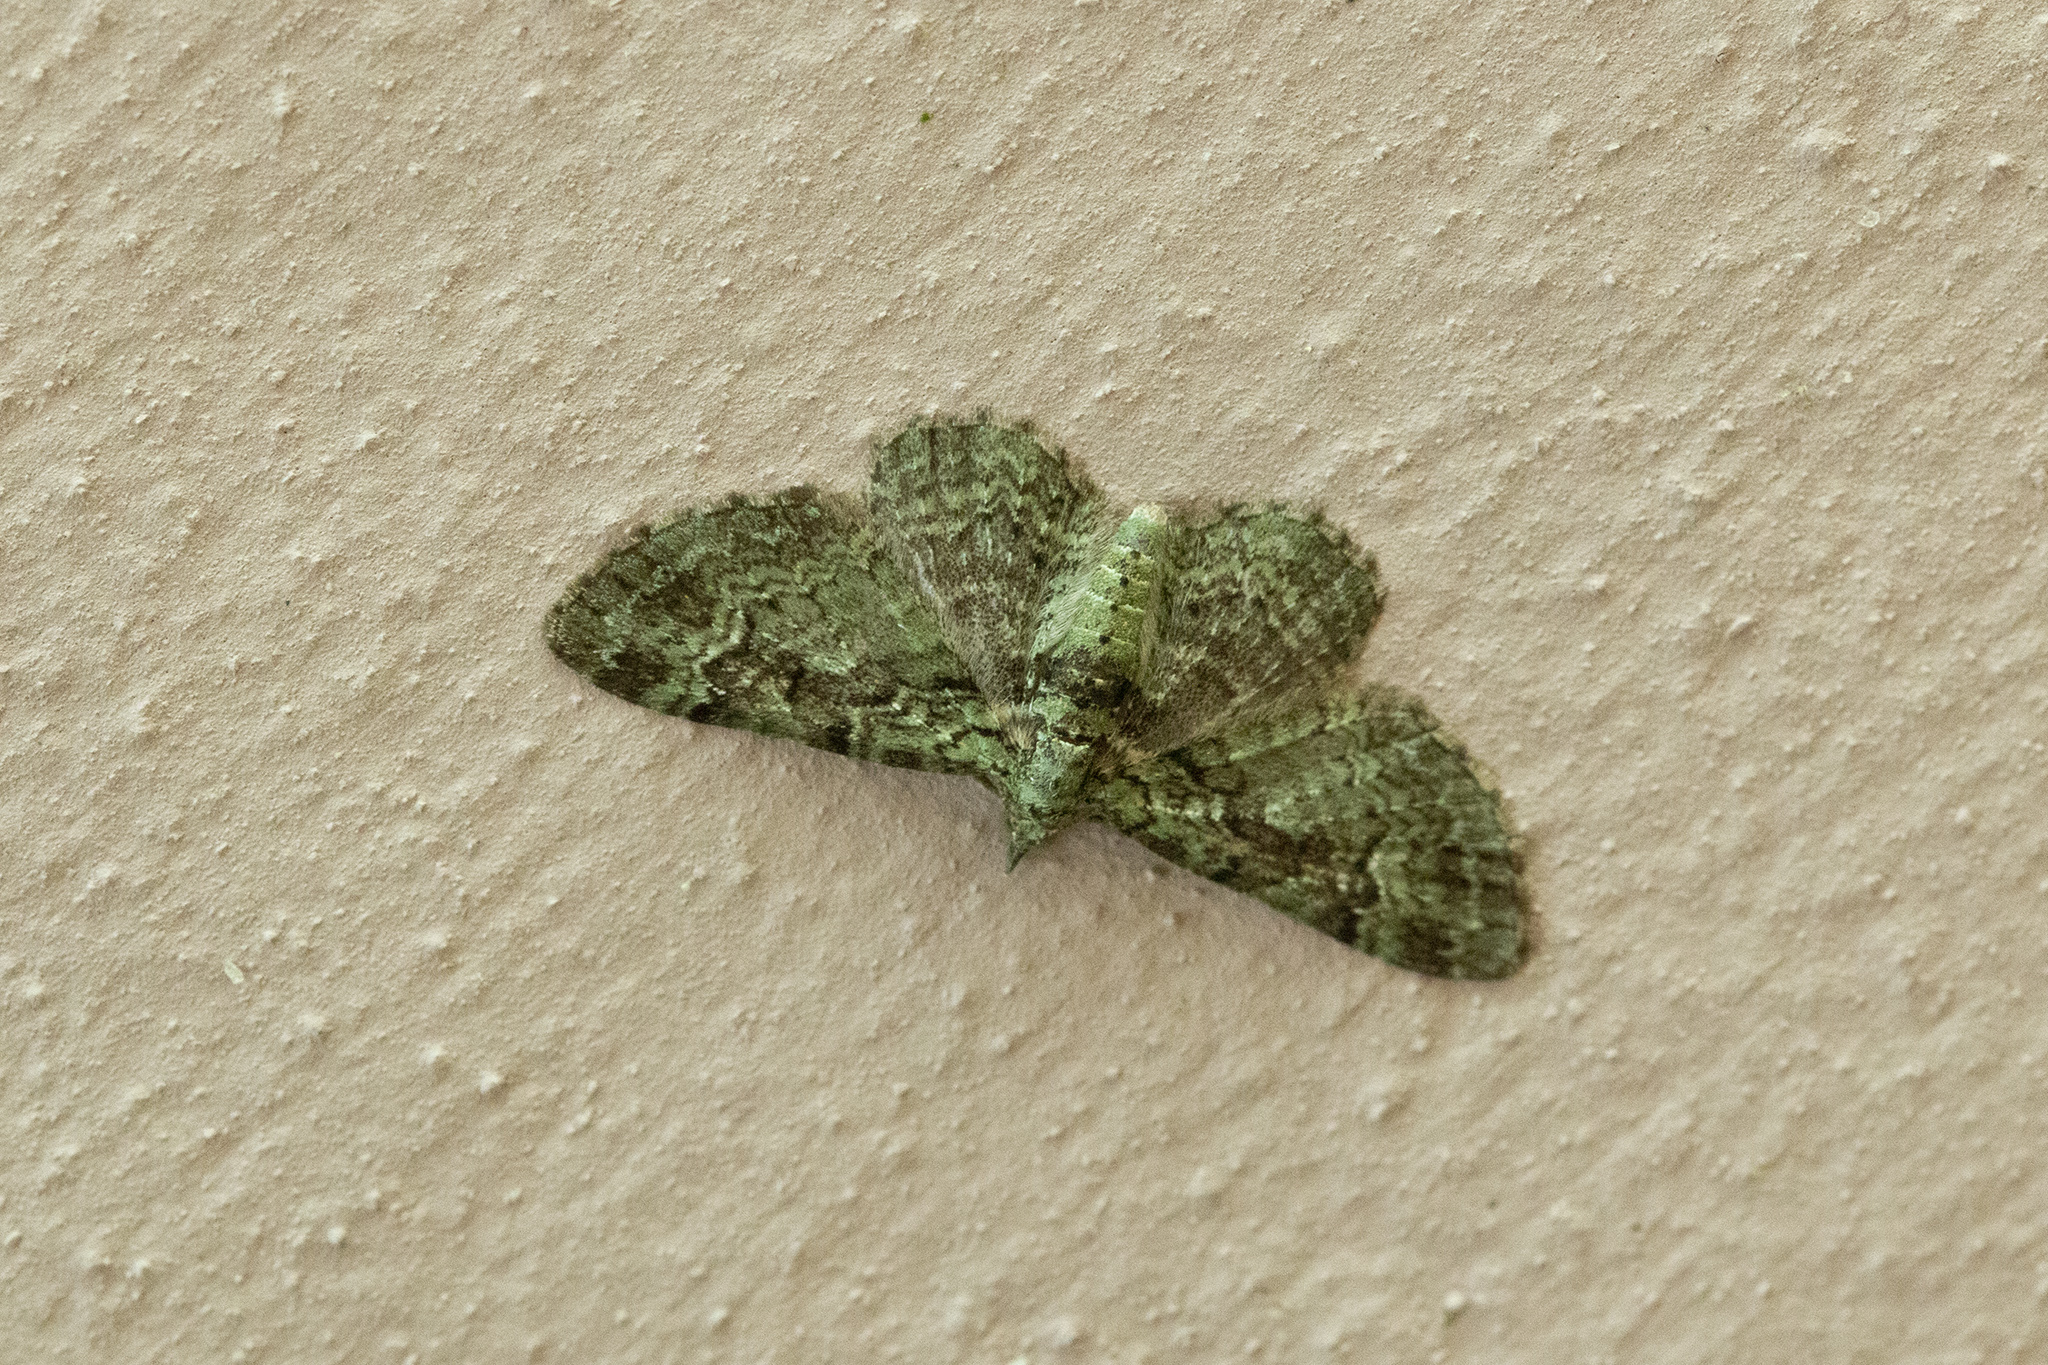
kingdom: Animalia
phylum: Arthropoda
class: Insecta
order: Lepidoptera
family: Geometridae
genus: Pasiphila
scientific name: Pasiphila rectangulata
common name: Green pug
